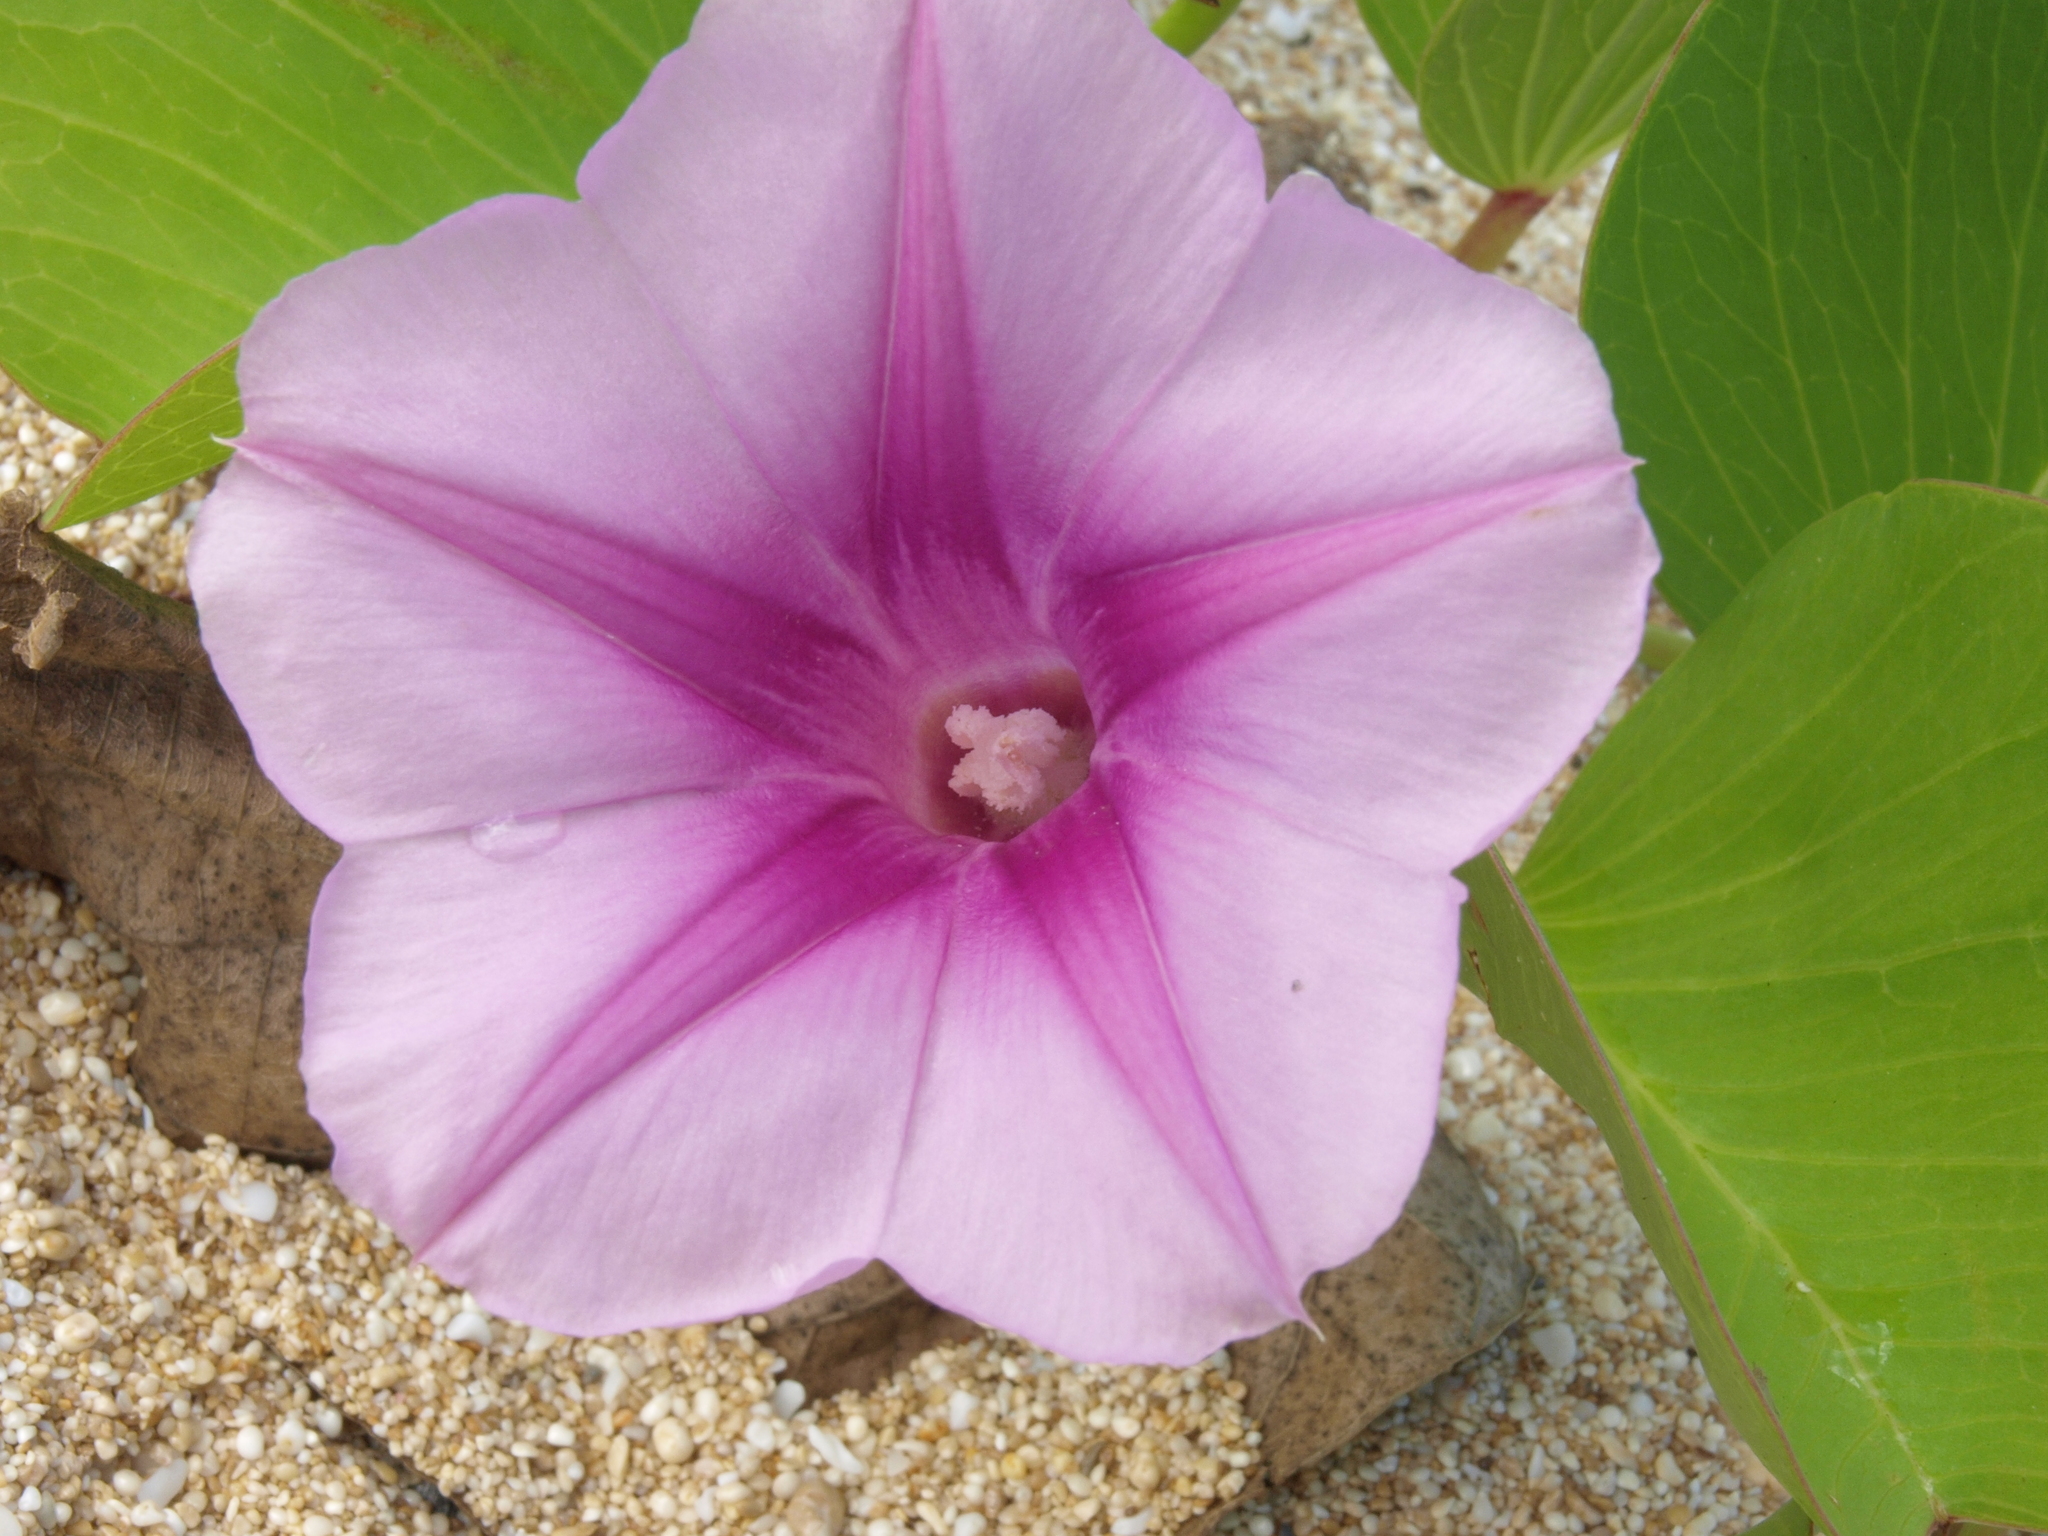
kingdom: Plantae
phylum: Tracheophyta
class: Magnoliopsida
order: Solanales
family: Convolvulaceae
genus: Ipomoea
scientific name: Ipomoea pes-caprae
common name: Beach morning glory
